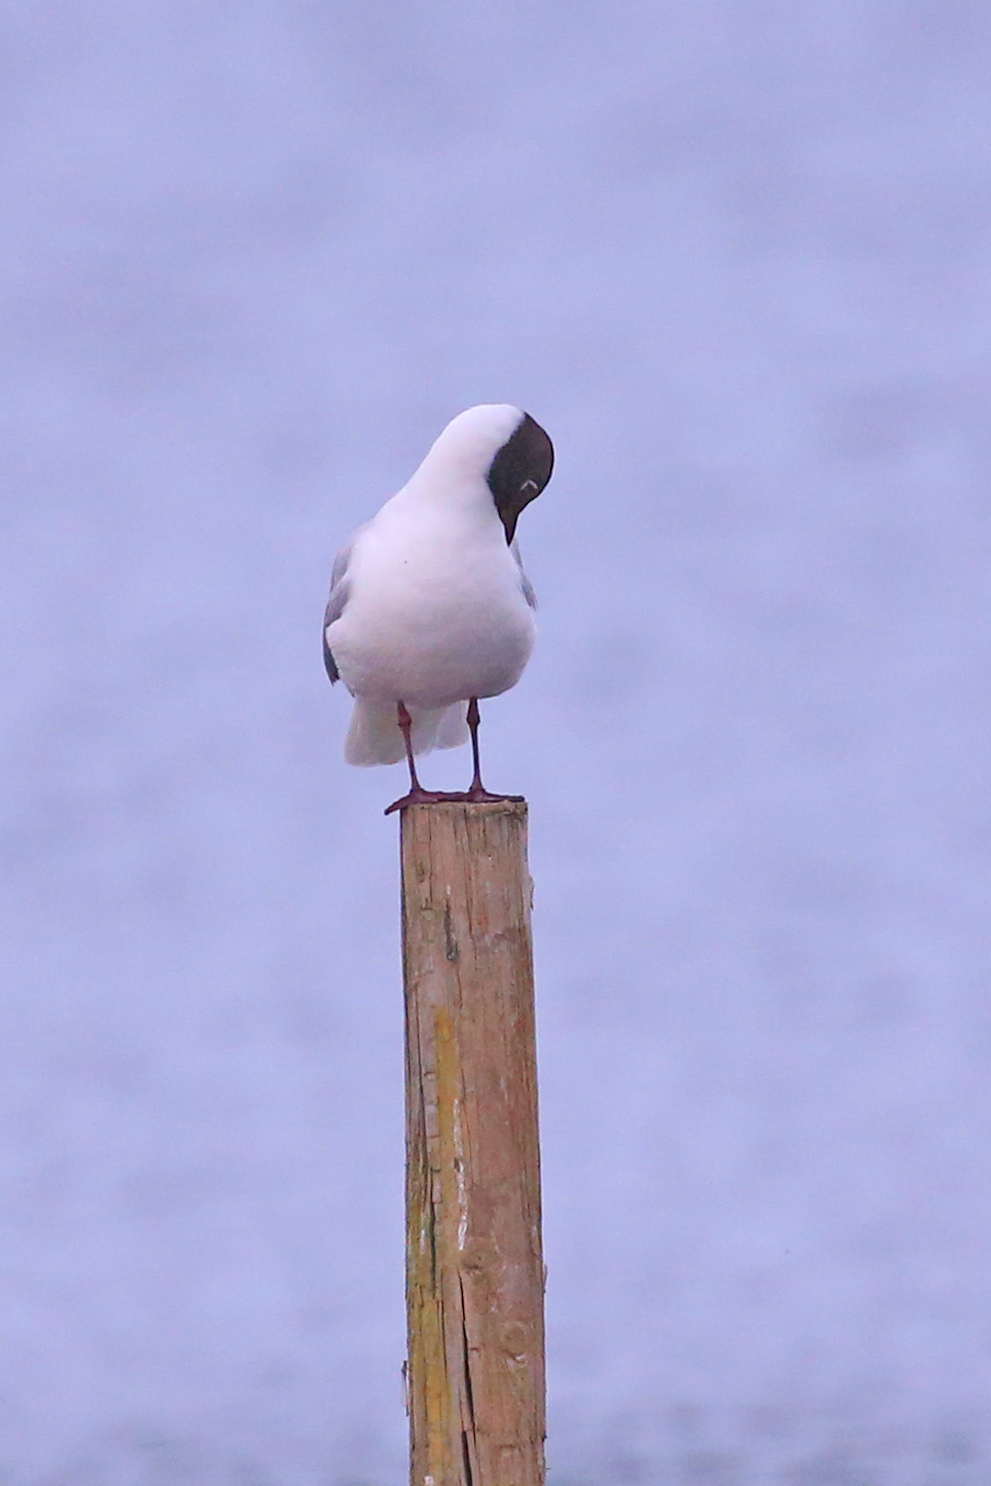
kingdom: Animalia
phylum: Chordata
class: Aves
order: Charadriiformes
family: Laridae
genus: Chroicocephalus
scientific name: Chroicocephalus ridibundus
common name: Black-headed gull
